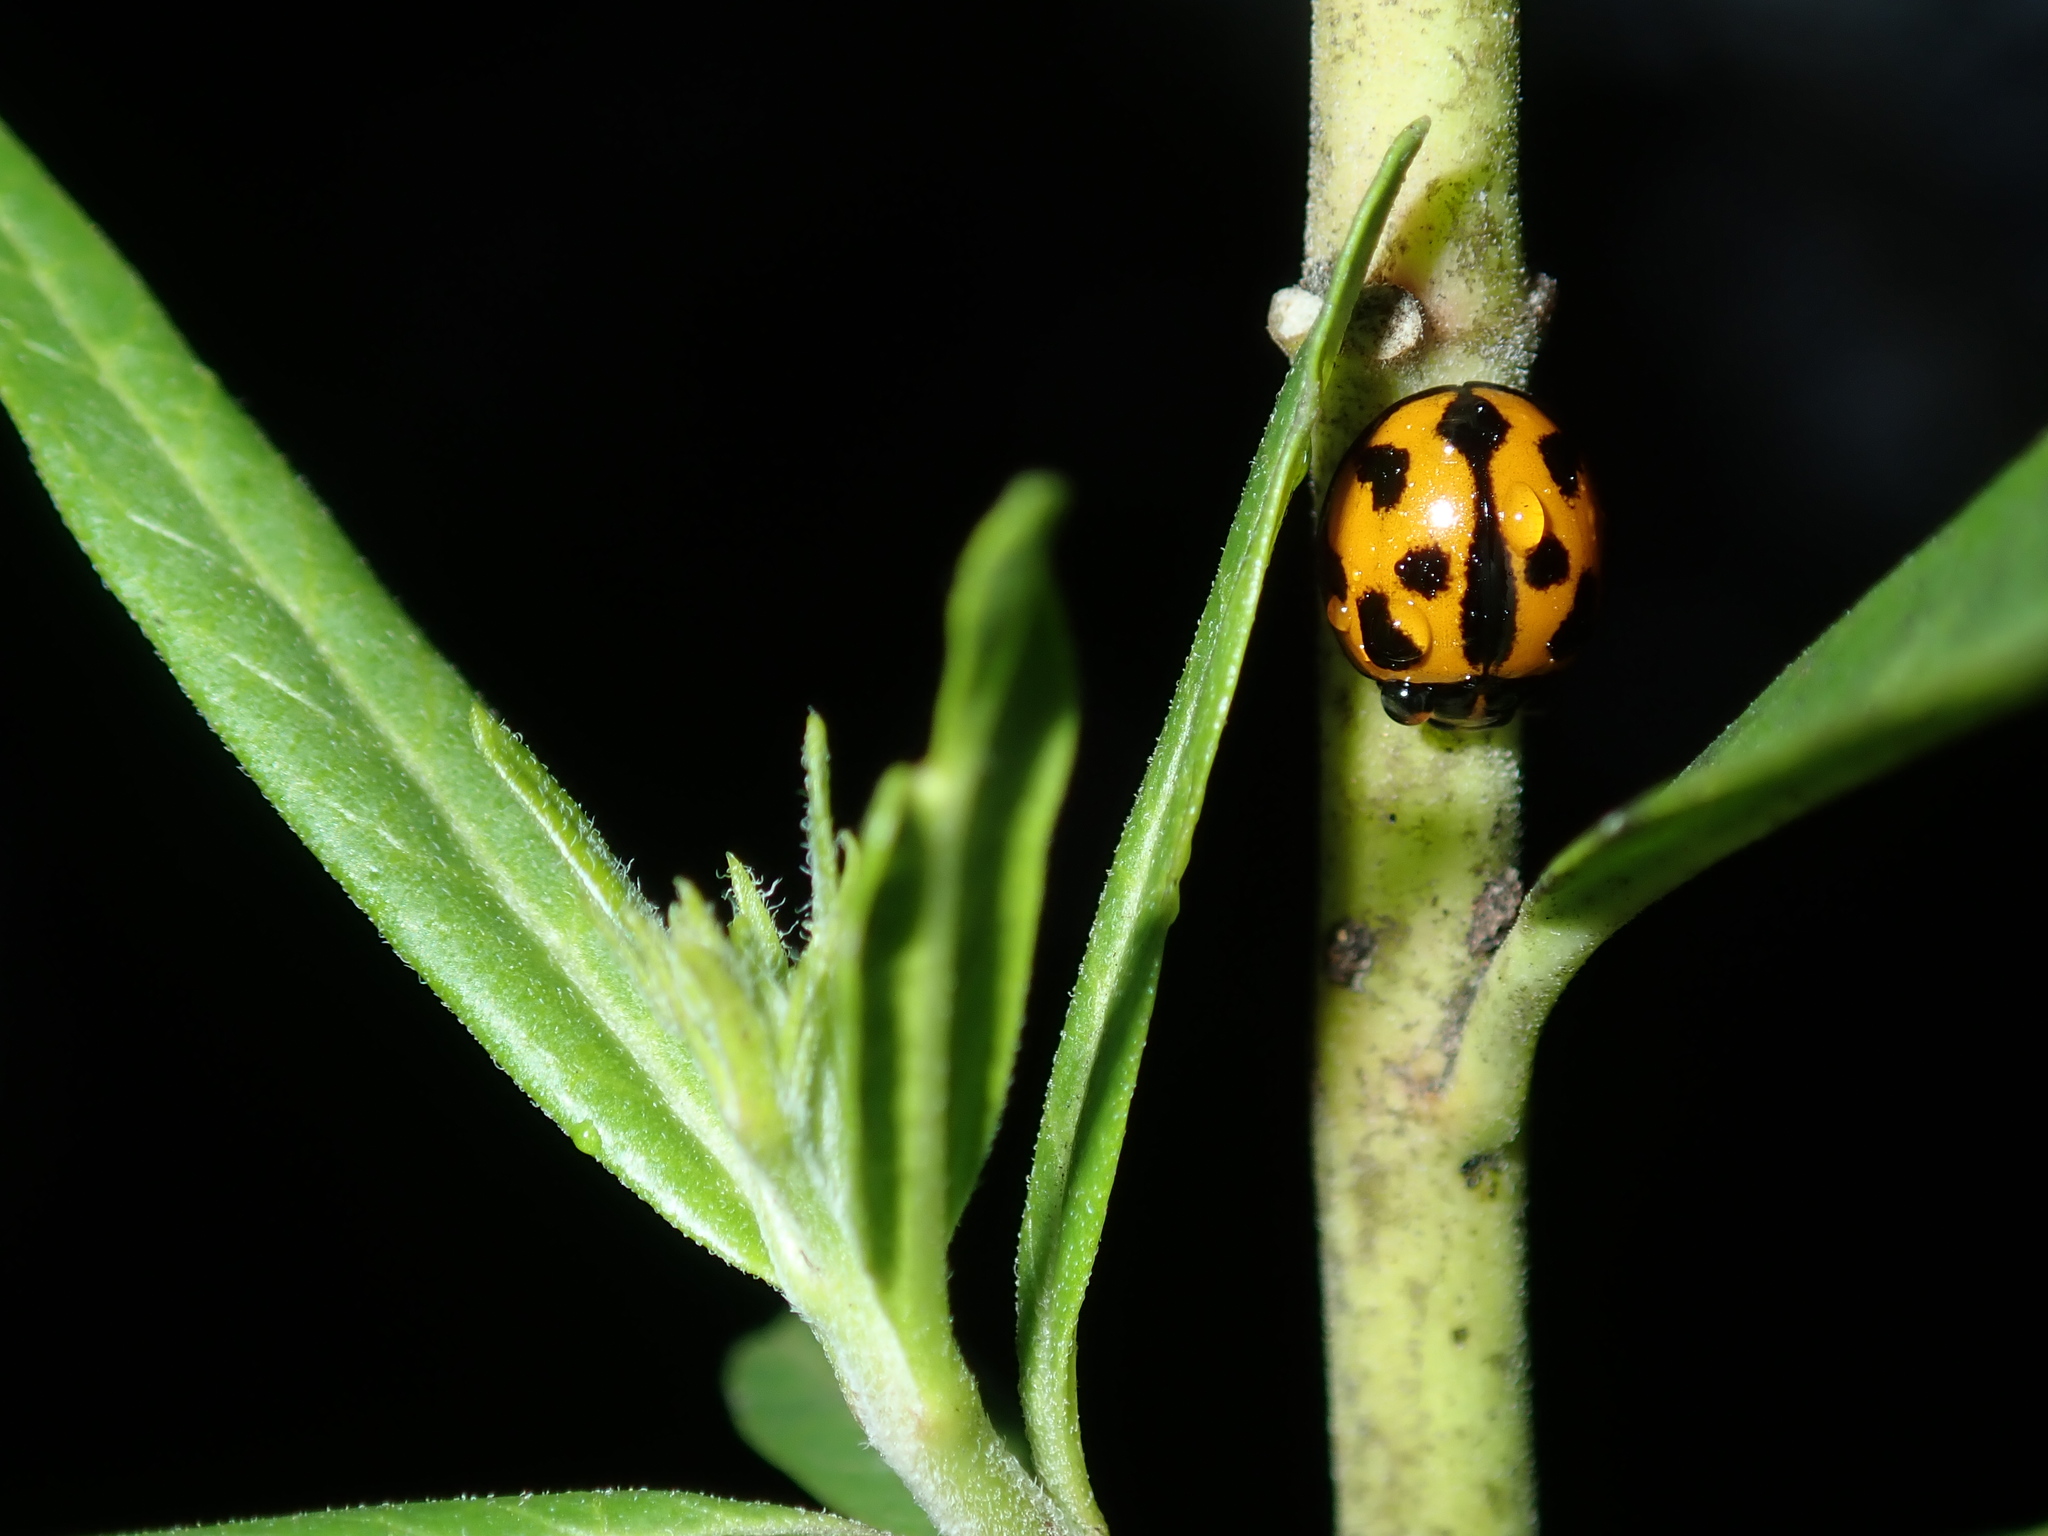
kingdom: Animalia
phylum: Arthropoda
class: Insecta
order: Coleoptera
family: Coccinellidae
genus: Coelophora
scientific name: Coelophora inaequalis
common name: Common australian lady beetle
